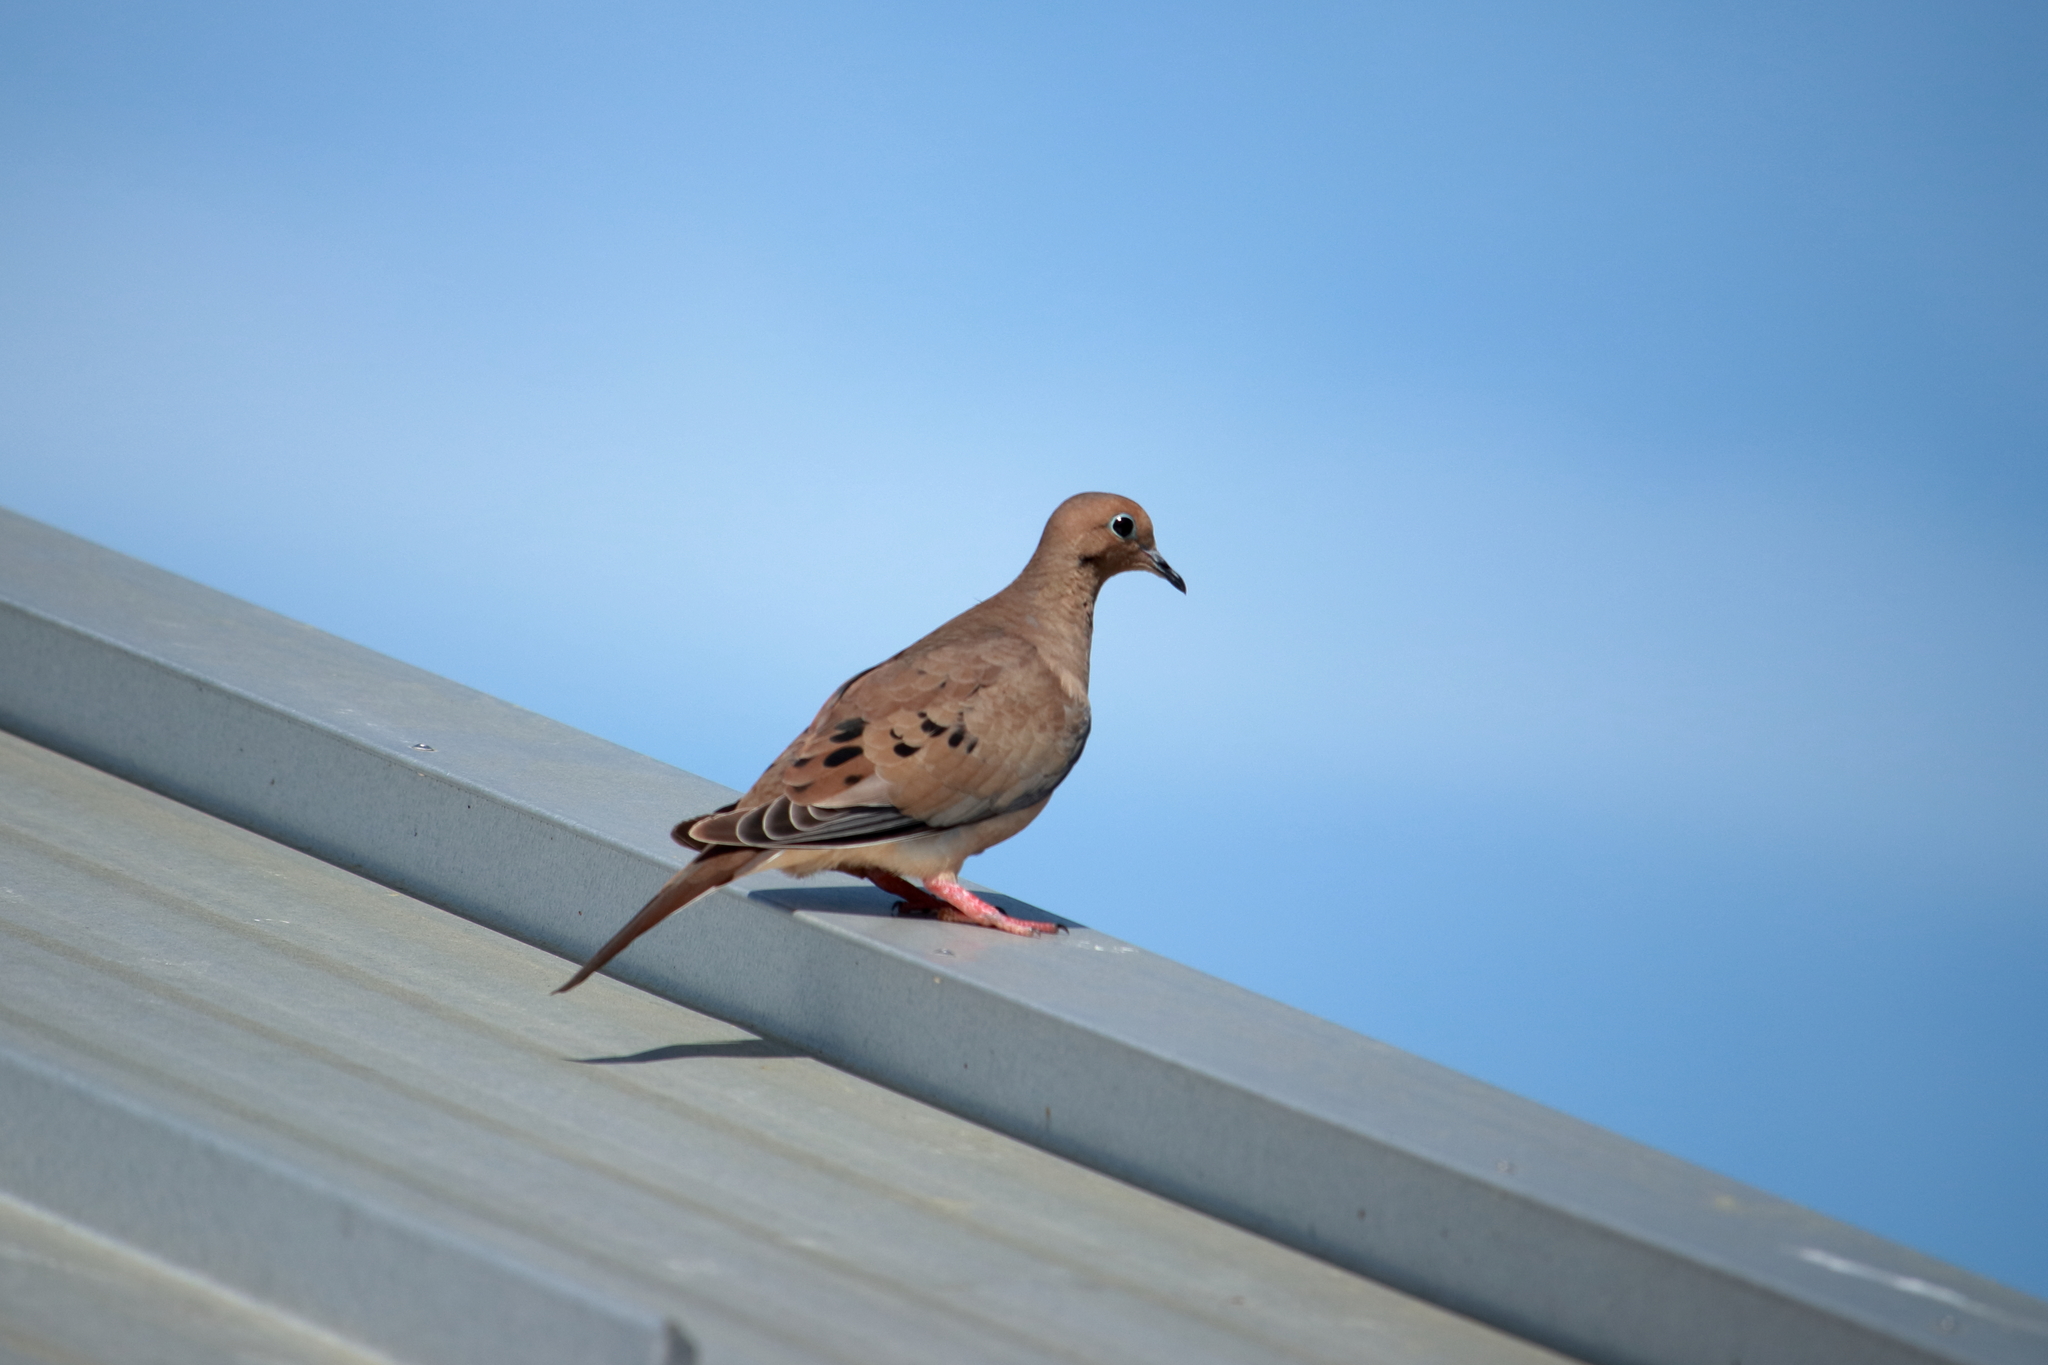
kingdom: Animalia
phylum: Chordata
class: Aves
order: Columbiformes
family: Columbidae
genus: Zenaida
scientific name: Zenaida macroura
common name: Mourning dove
